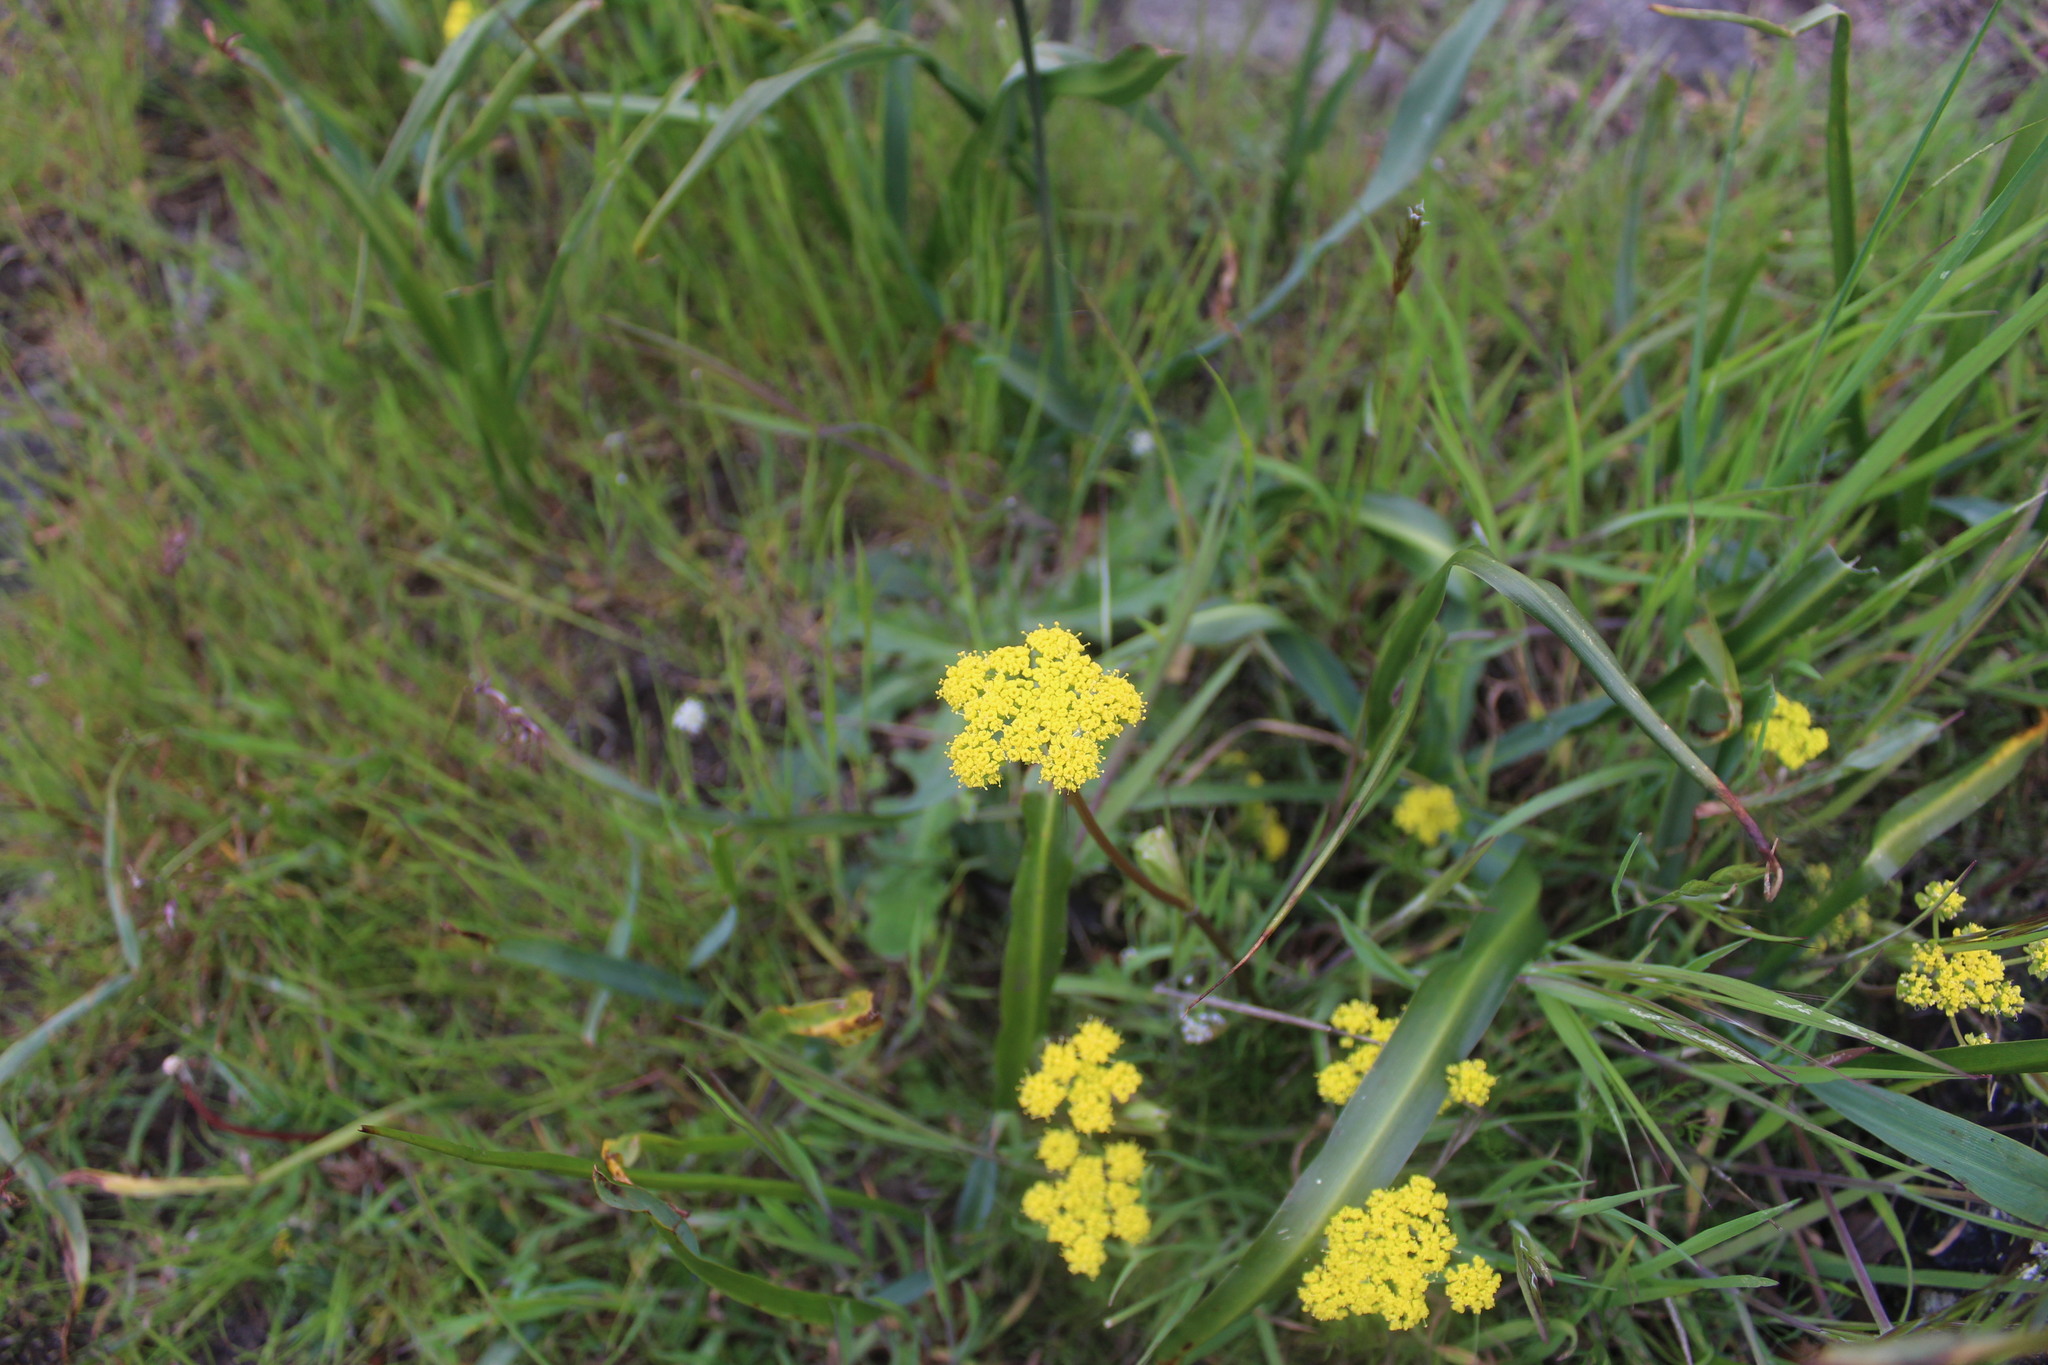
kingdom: Plantae
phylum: Tracheophyta
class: Magnoliopsida
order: Apiales
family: Apiaceae
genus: Lomatium
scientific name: Lomatium utriculatum
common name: Fine-leaf desert-parsley
